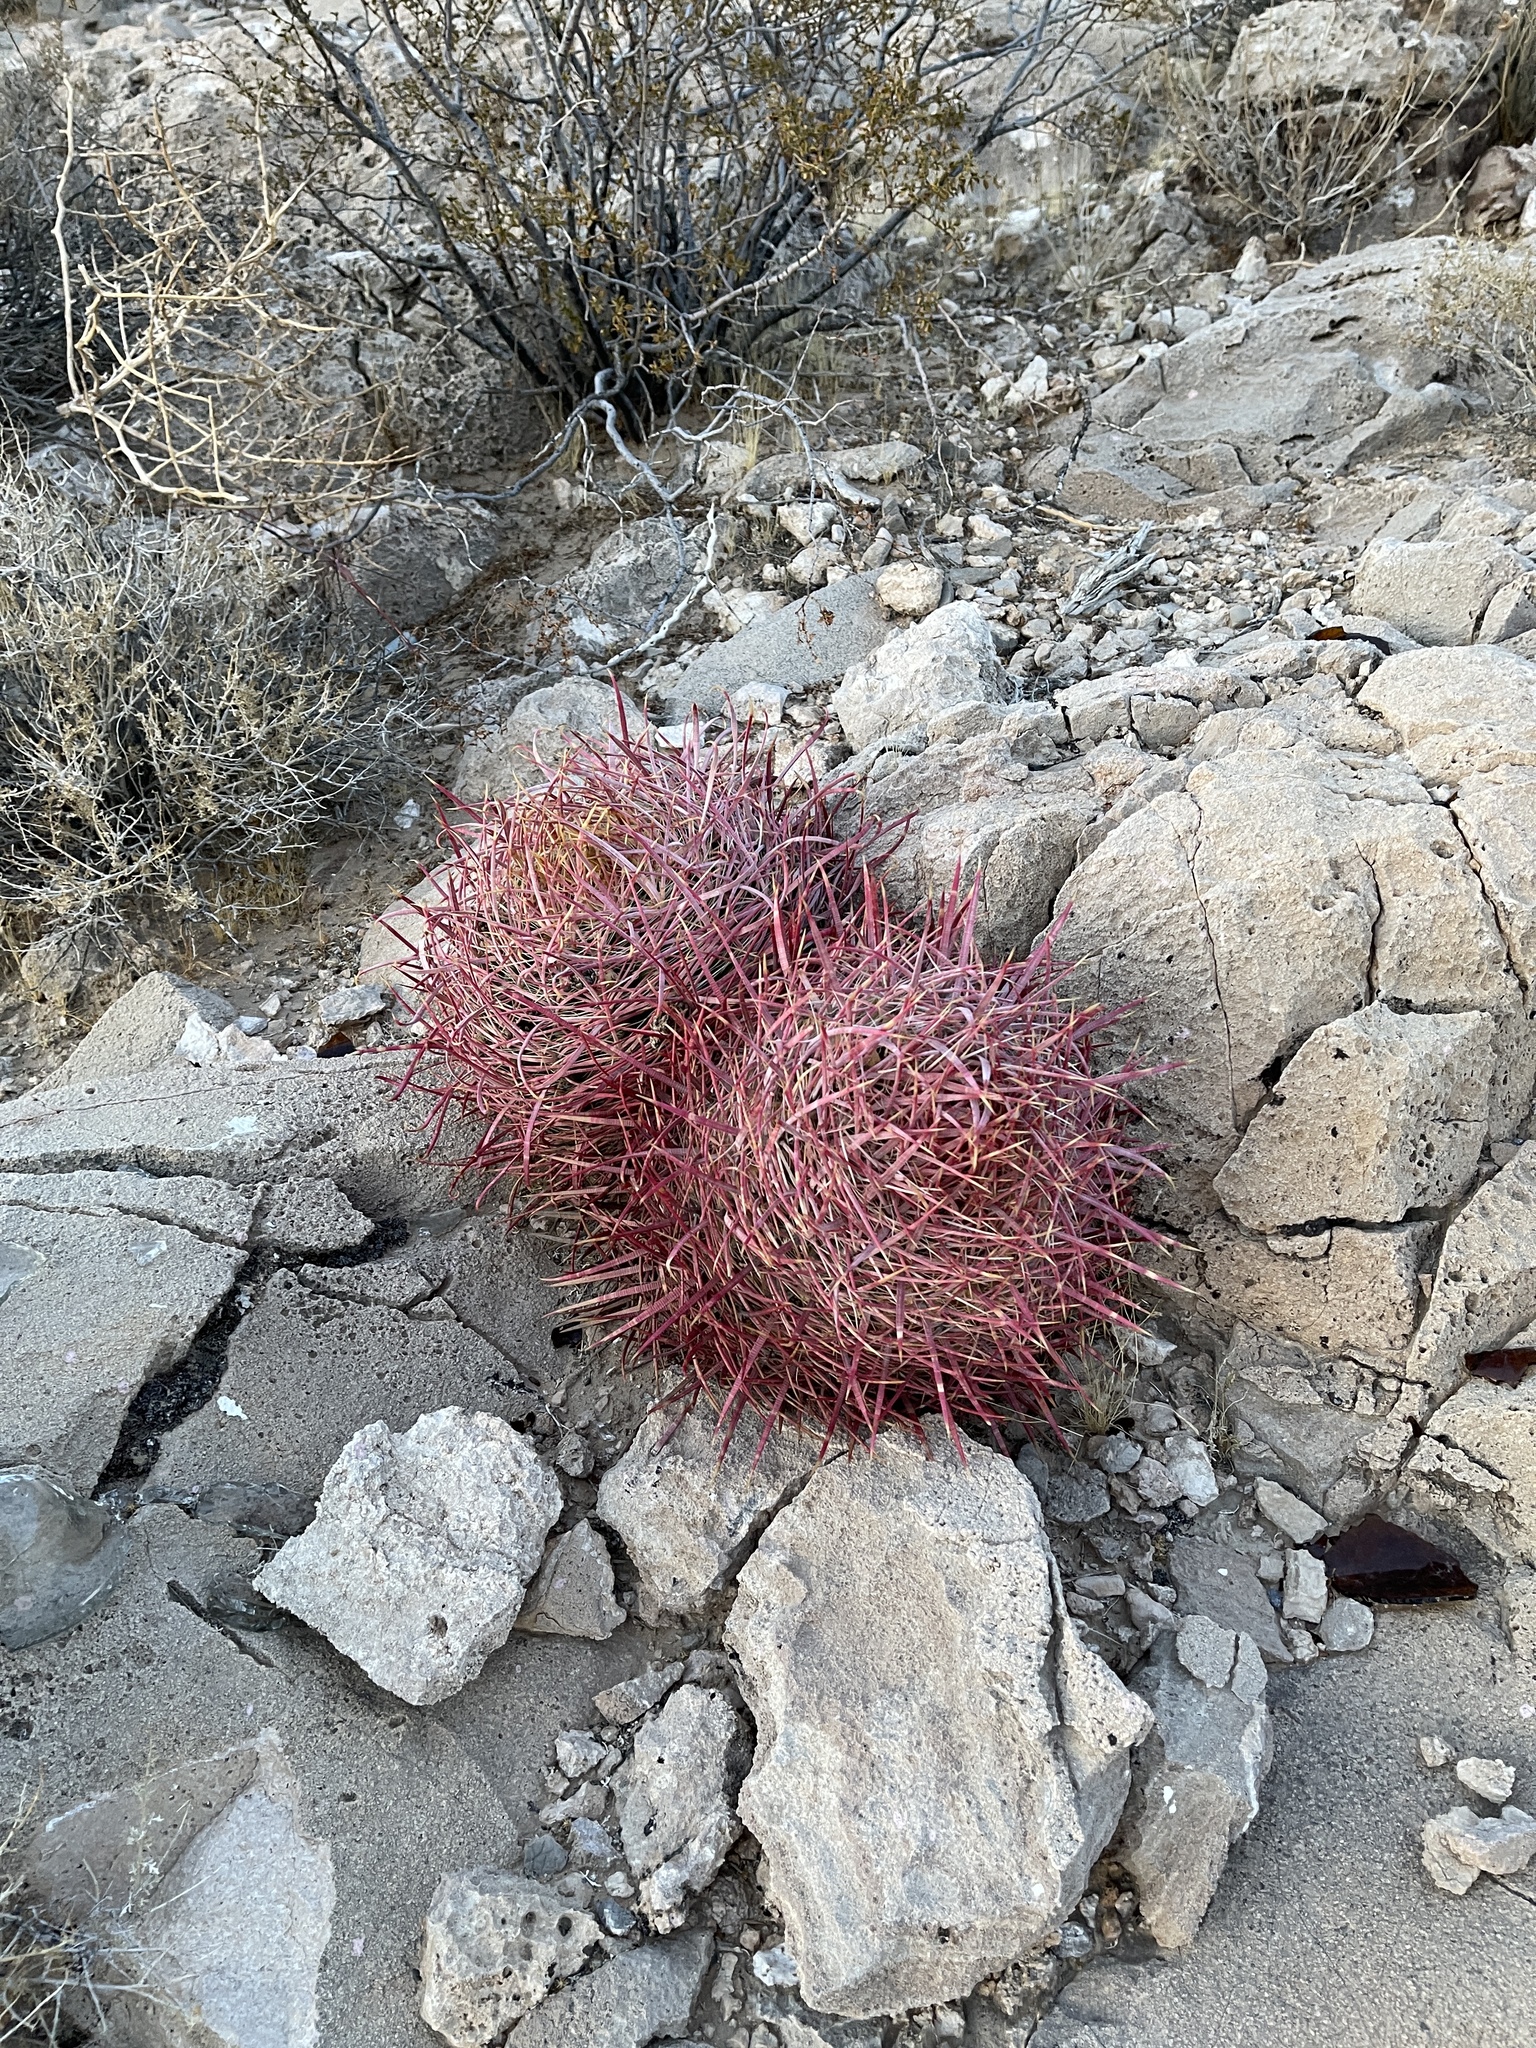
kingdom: Plantae
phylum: Tracheophyta
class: Magnoliopsida
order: Caryophyllales
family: Cactaceae
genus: Ferocactus
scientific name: Ferocactus cylindraceus
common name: California barrel cactus
